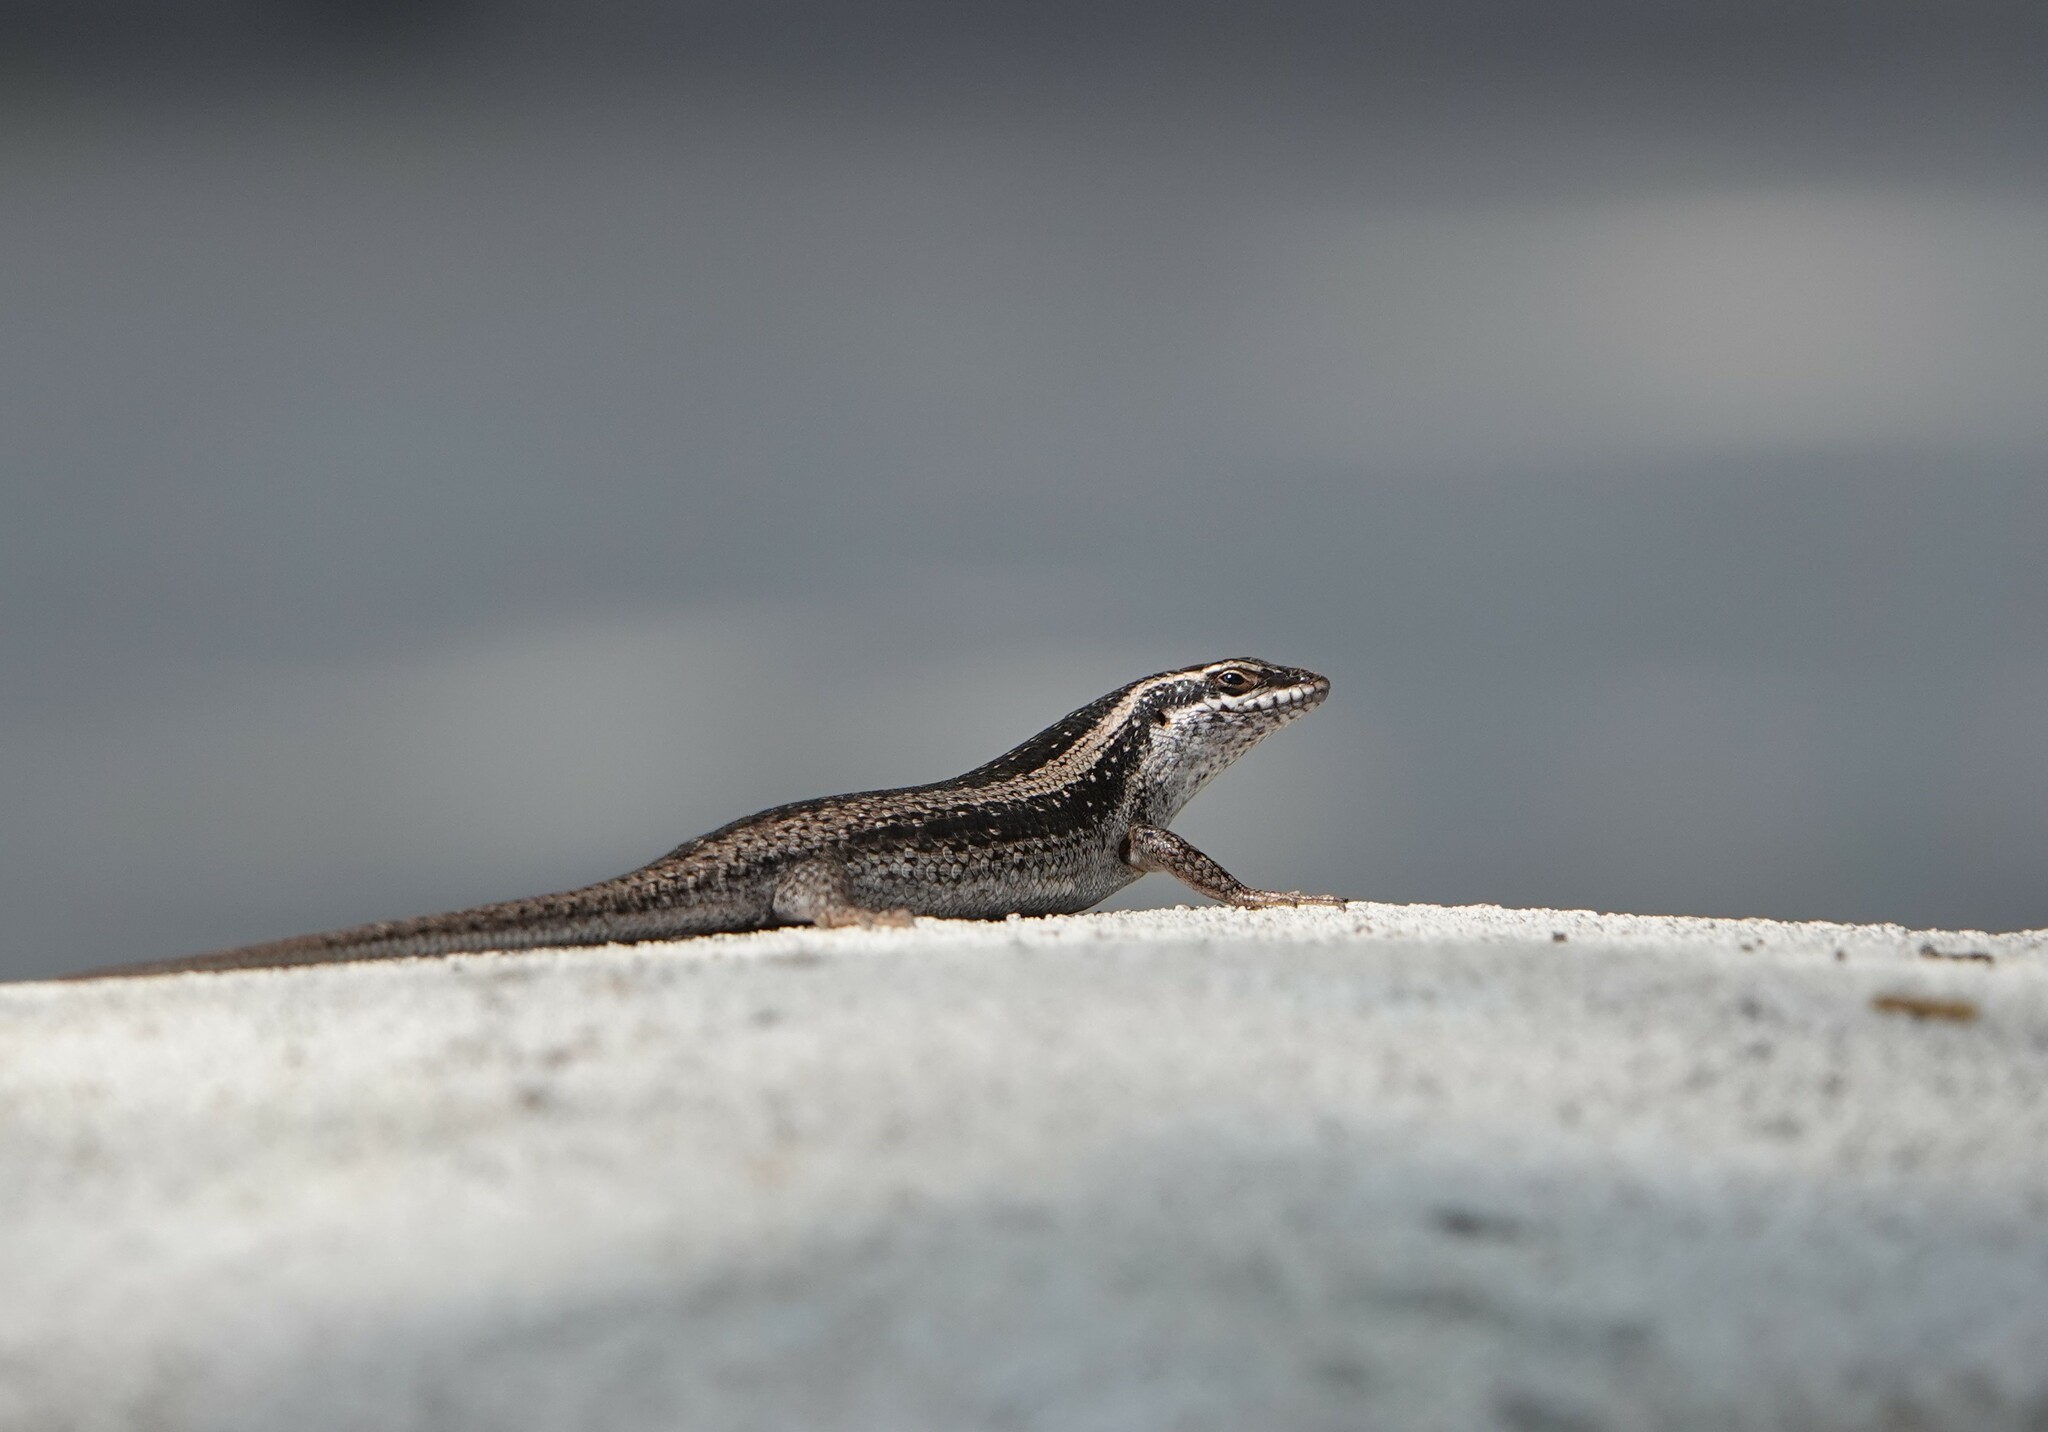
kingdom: Animalia
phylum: Chordata
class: Squamata
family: Scincidae
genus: Trachylepis
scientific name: Trachylepis spilogaster
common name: Kalahari tree skink
